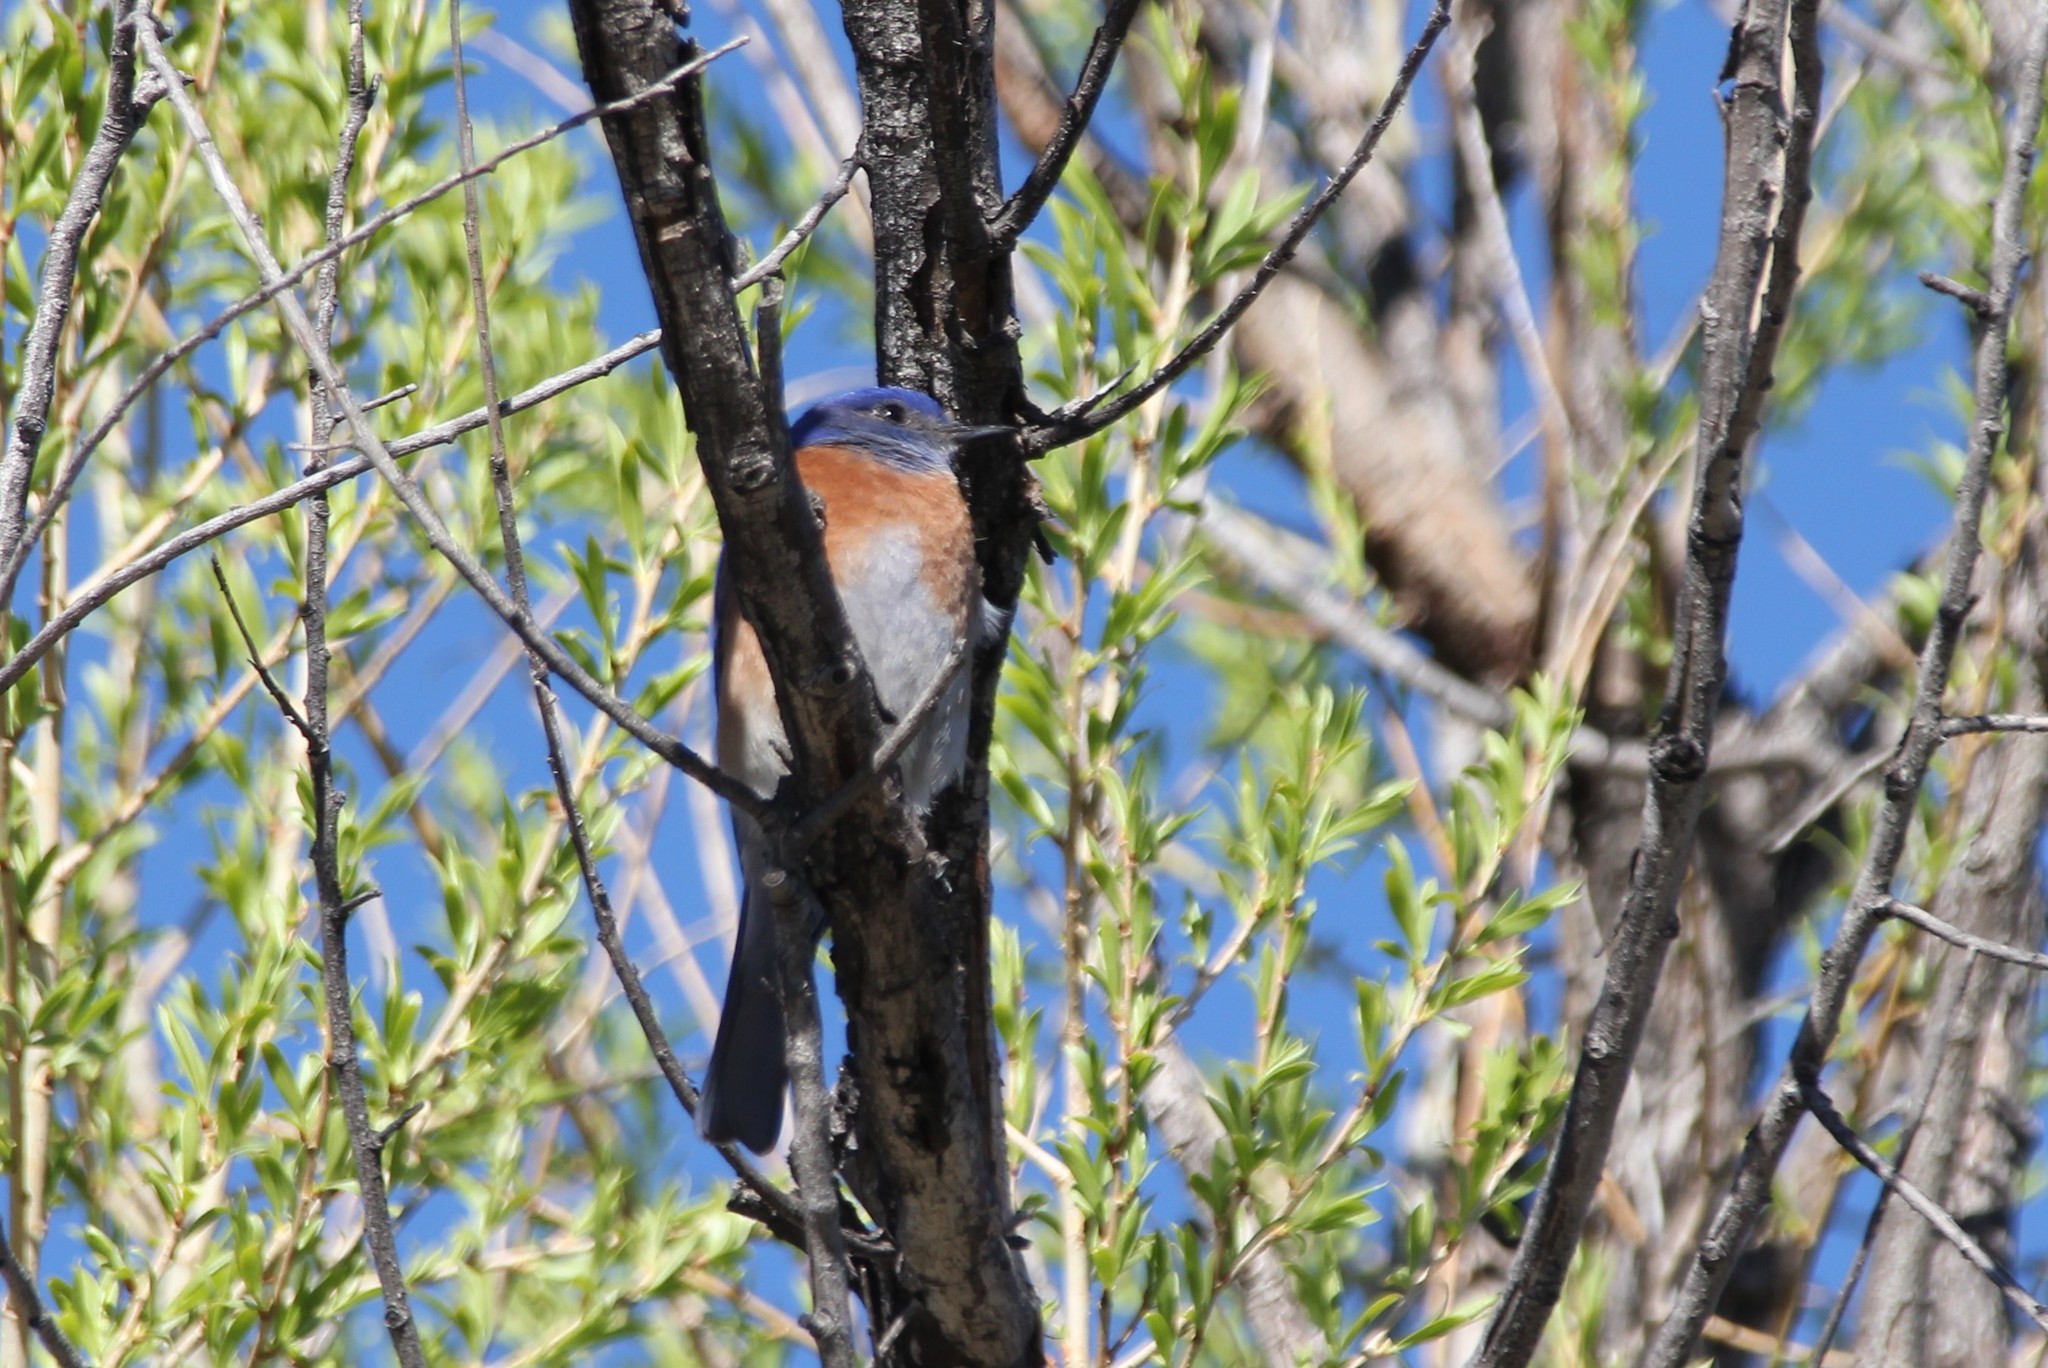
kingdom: Animalia
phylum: Chordata
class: Aves
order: Passeriformes
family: Turdidae
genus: Sialia
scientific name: Sialia mexicana
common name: Western bluebird
